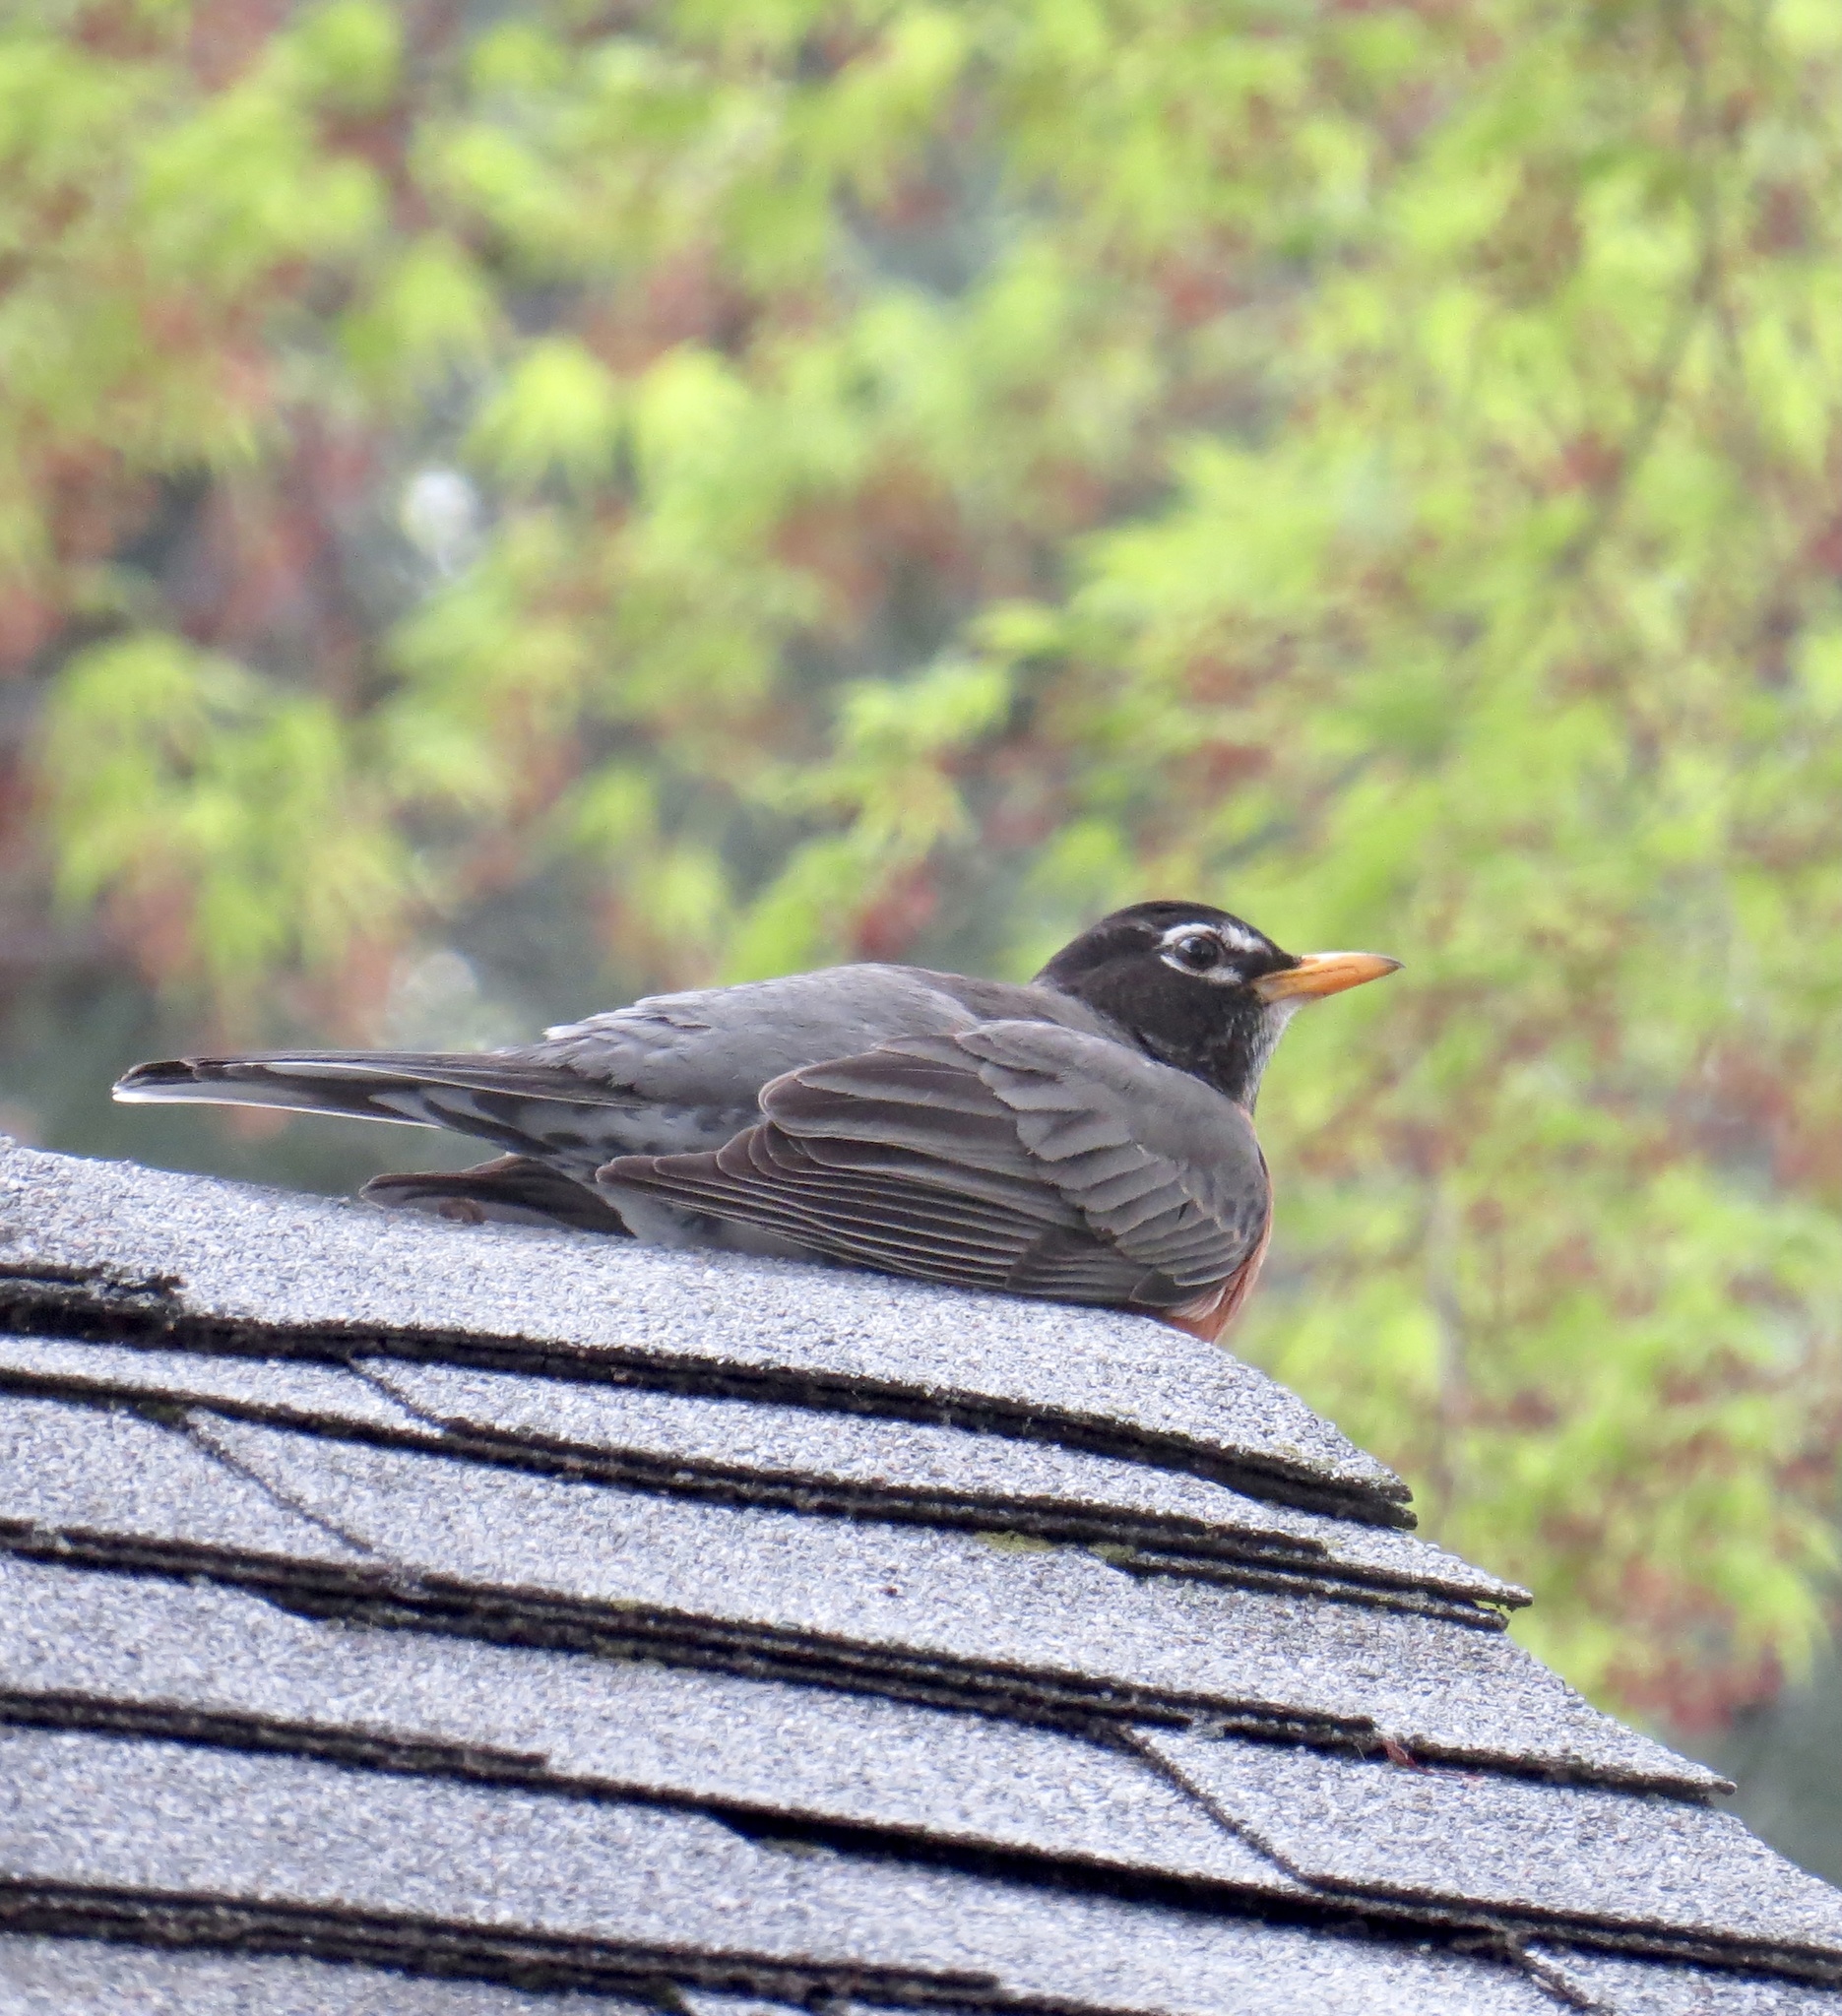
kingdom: Animalia
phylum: Chordata
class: Aves
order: Passeriformes
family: Turdidae
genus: Turdus
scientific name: Turdus migratorius
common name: American robin
